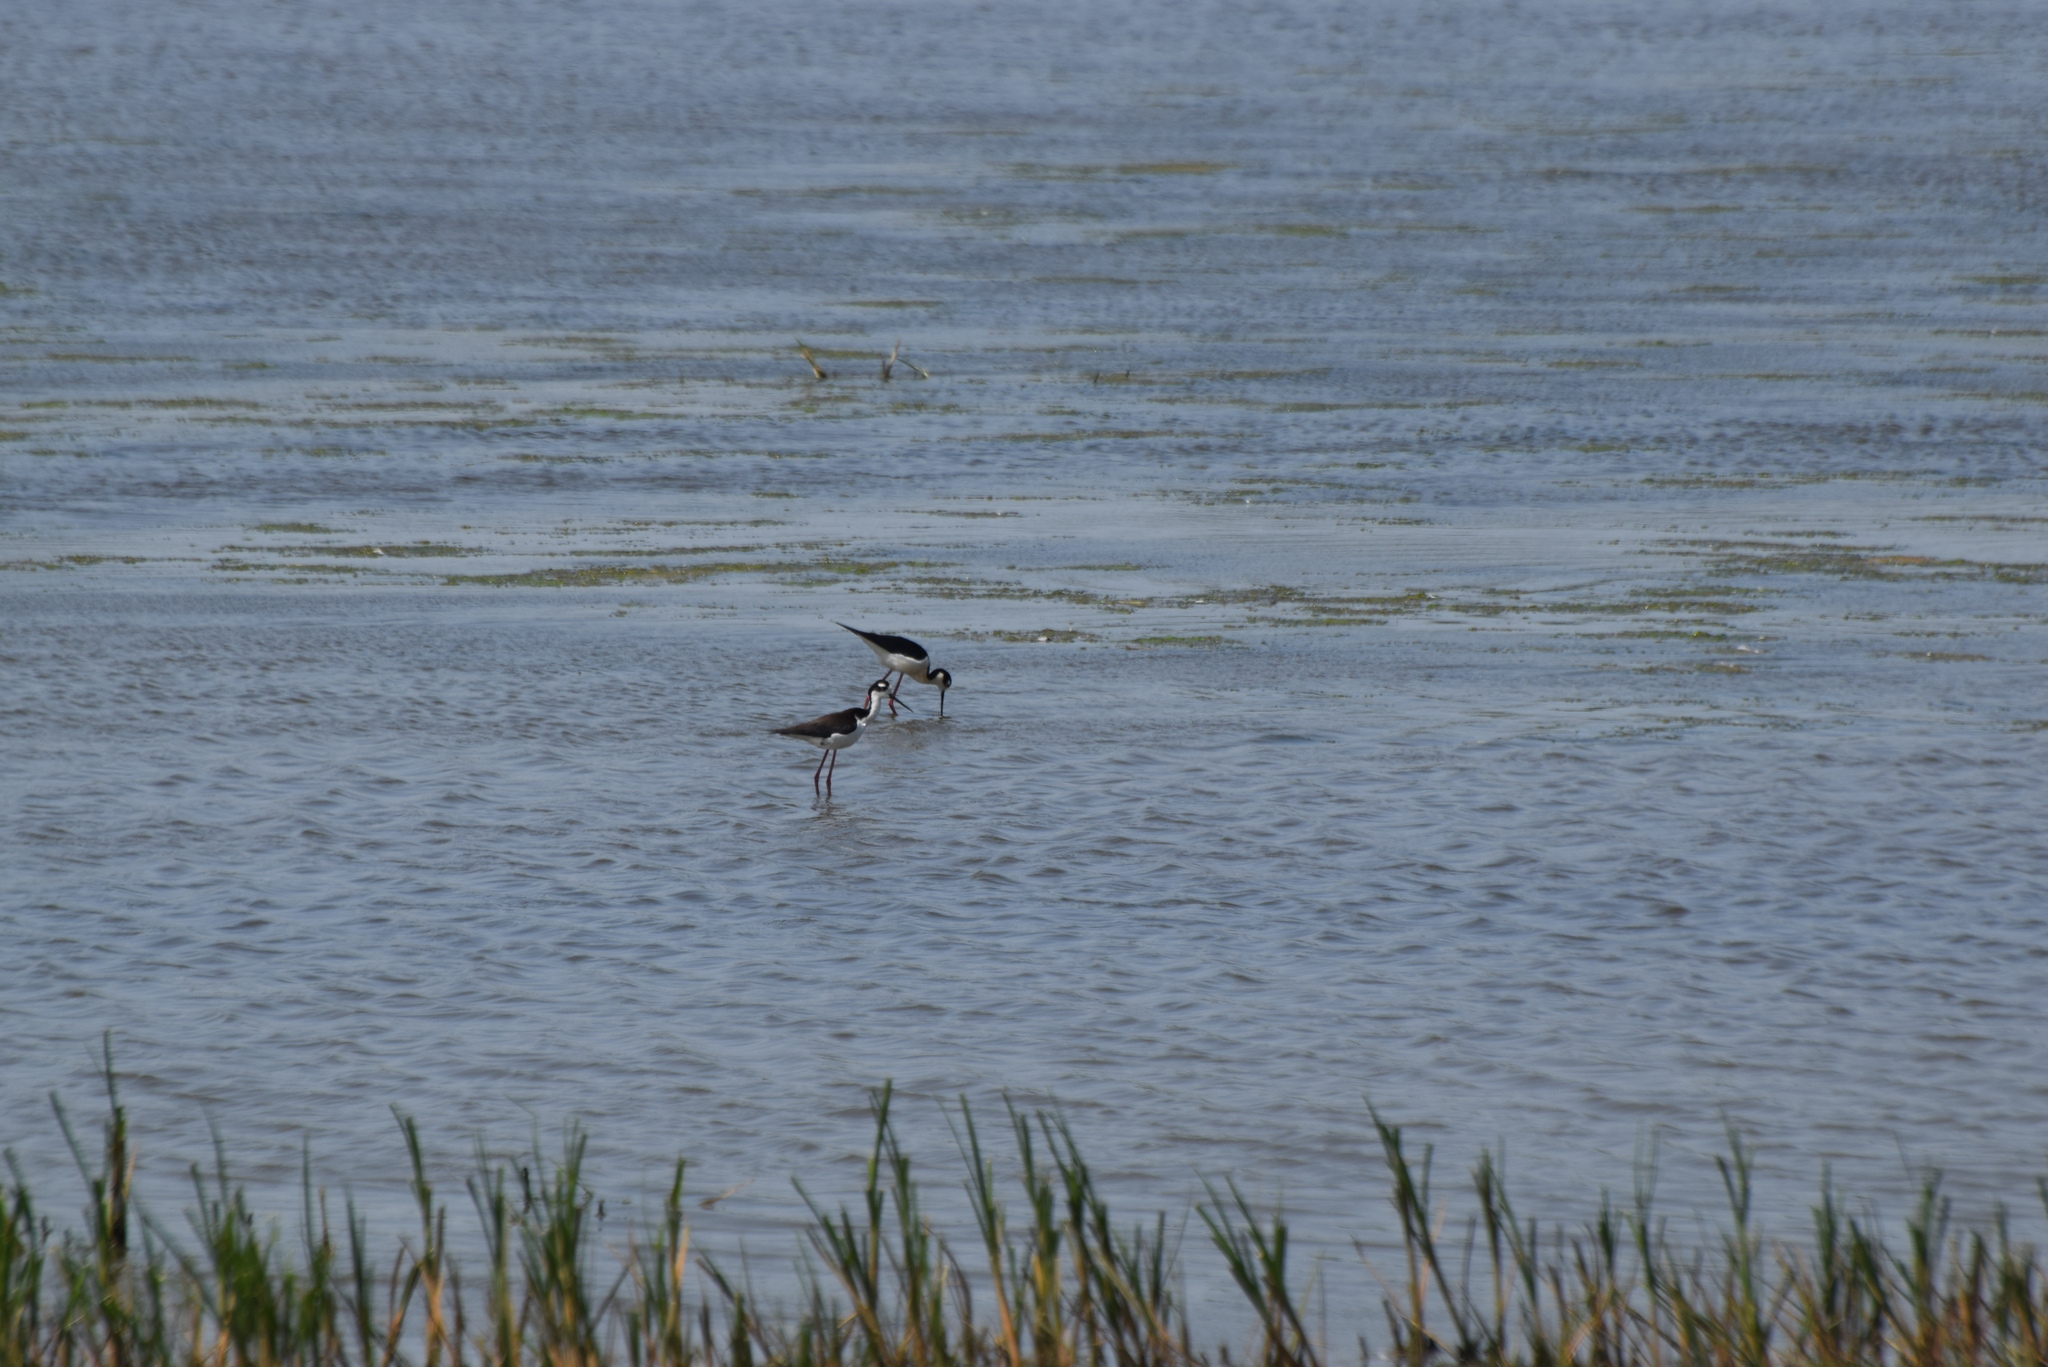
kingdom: Animalia
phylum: Chordata
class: Aves
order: Charadriiformes
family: Recurvirostridae
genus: Himantopus
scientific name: Himantopus mexicanus
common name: Black-necked stilt
